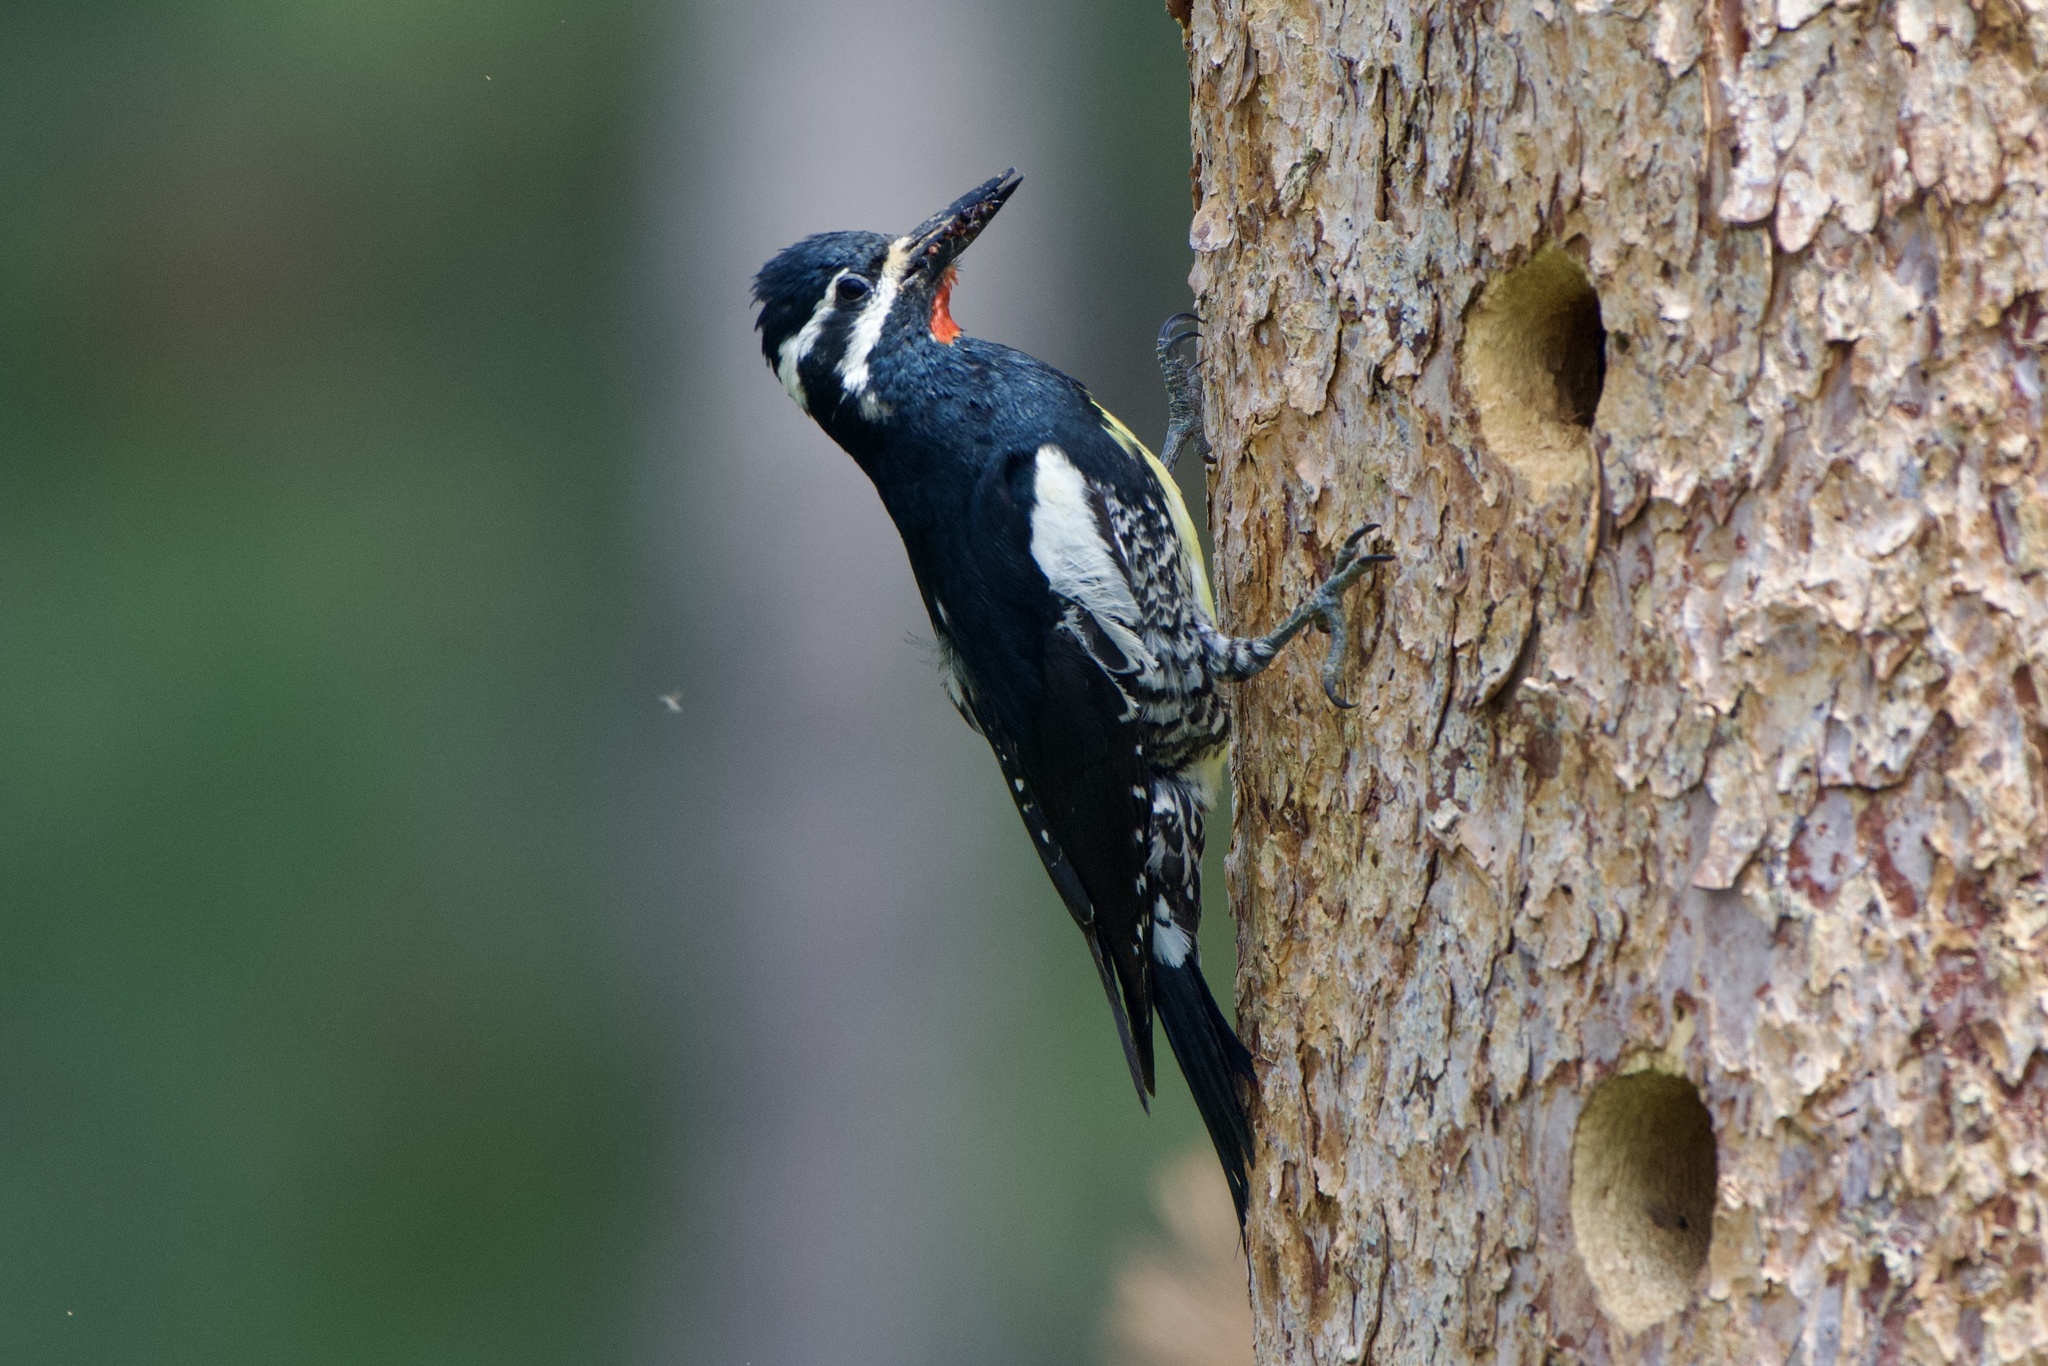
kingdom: Animalia
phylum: Chordata
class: Aves
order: Piciformes
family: Picidae
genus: Sphyrapicus
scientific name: Sphyrapicus thyroideus
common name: Williamson's sapsucker
